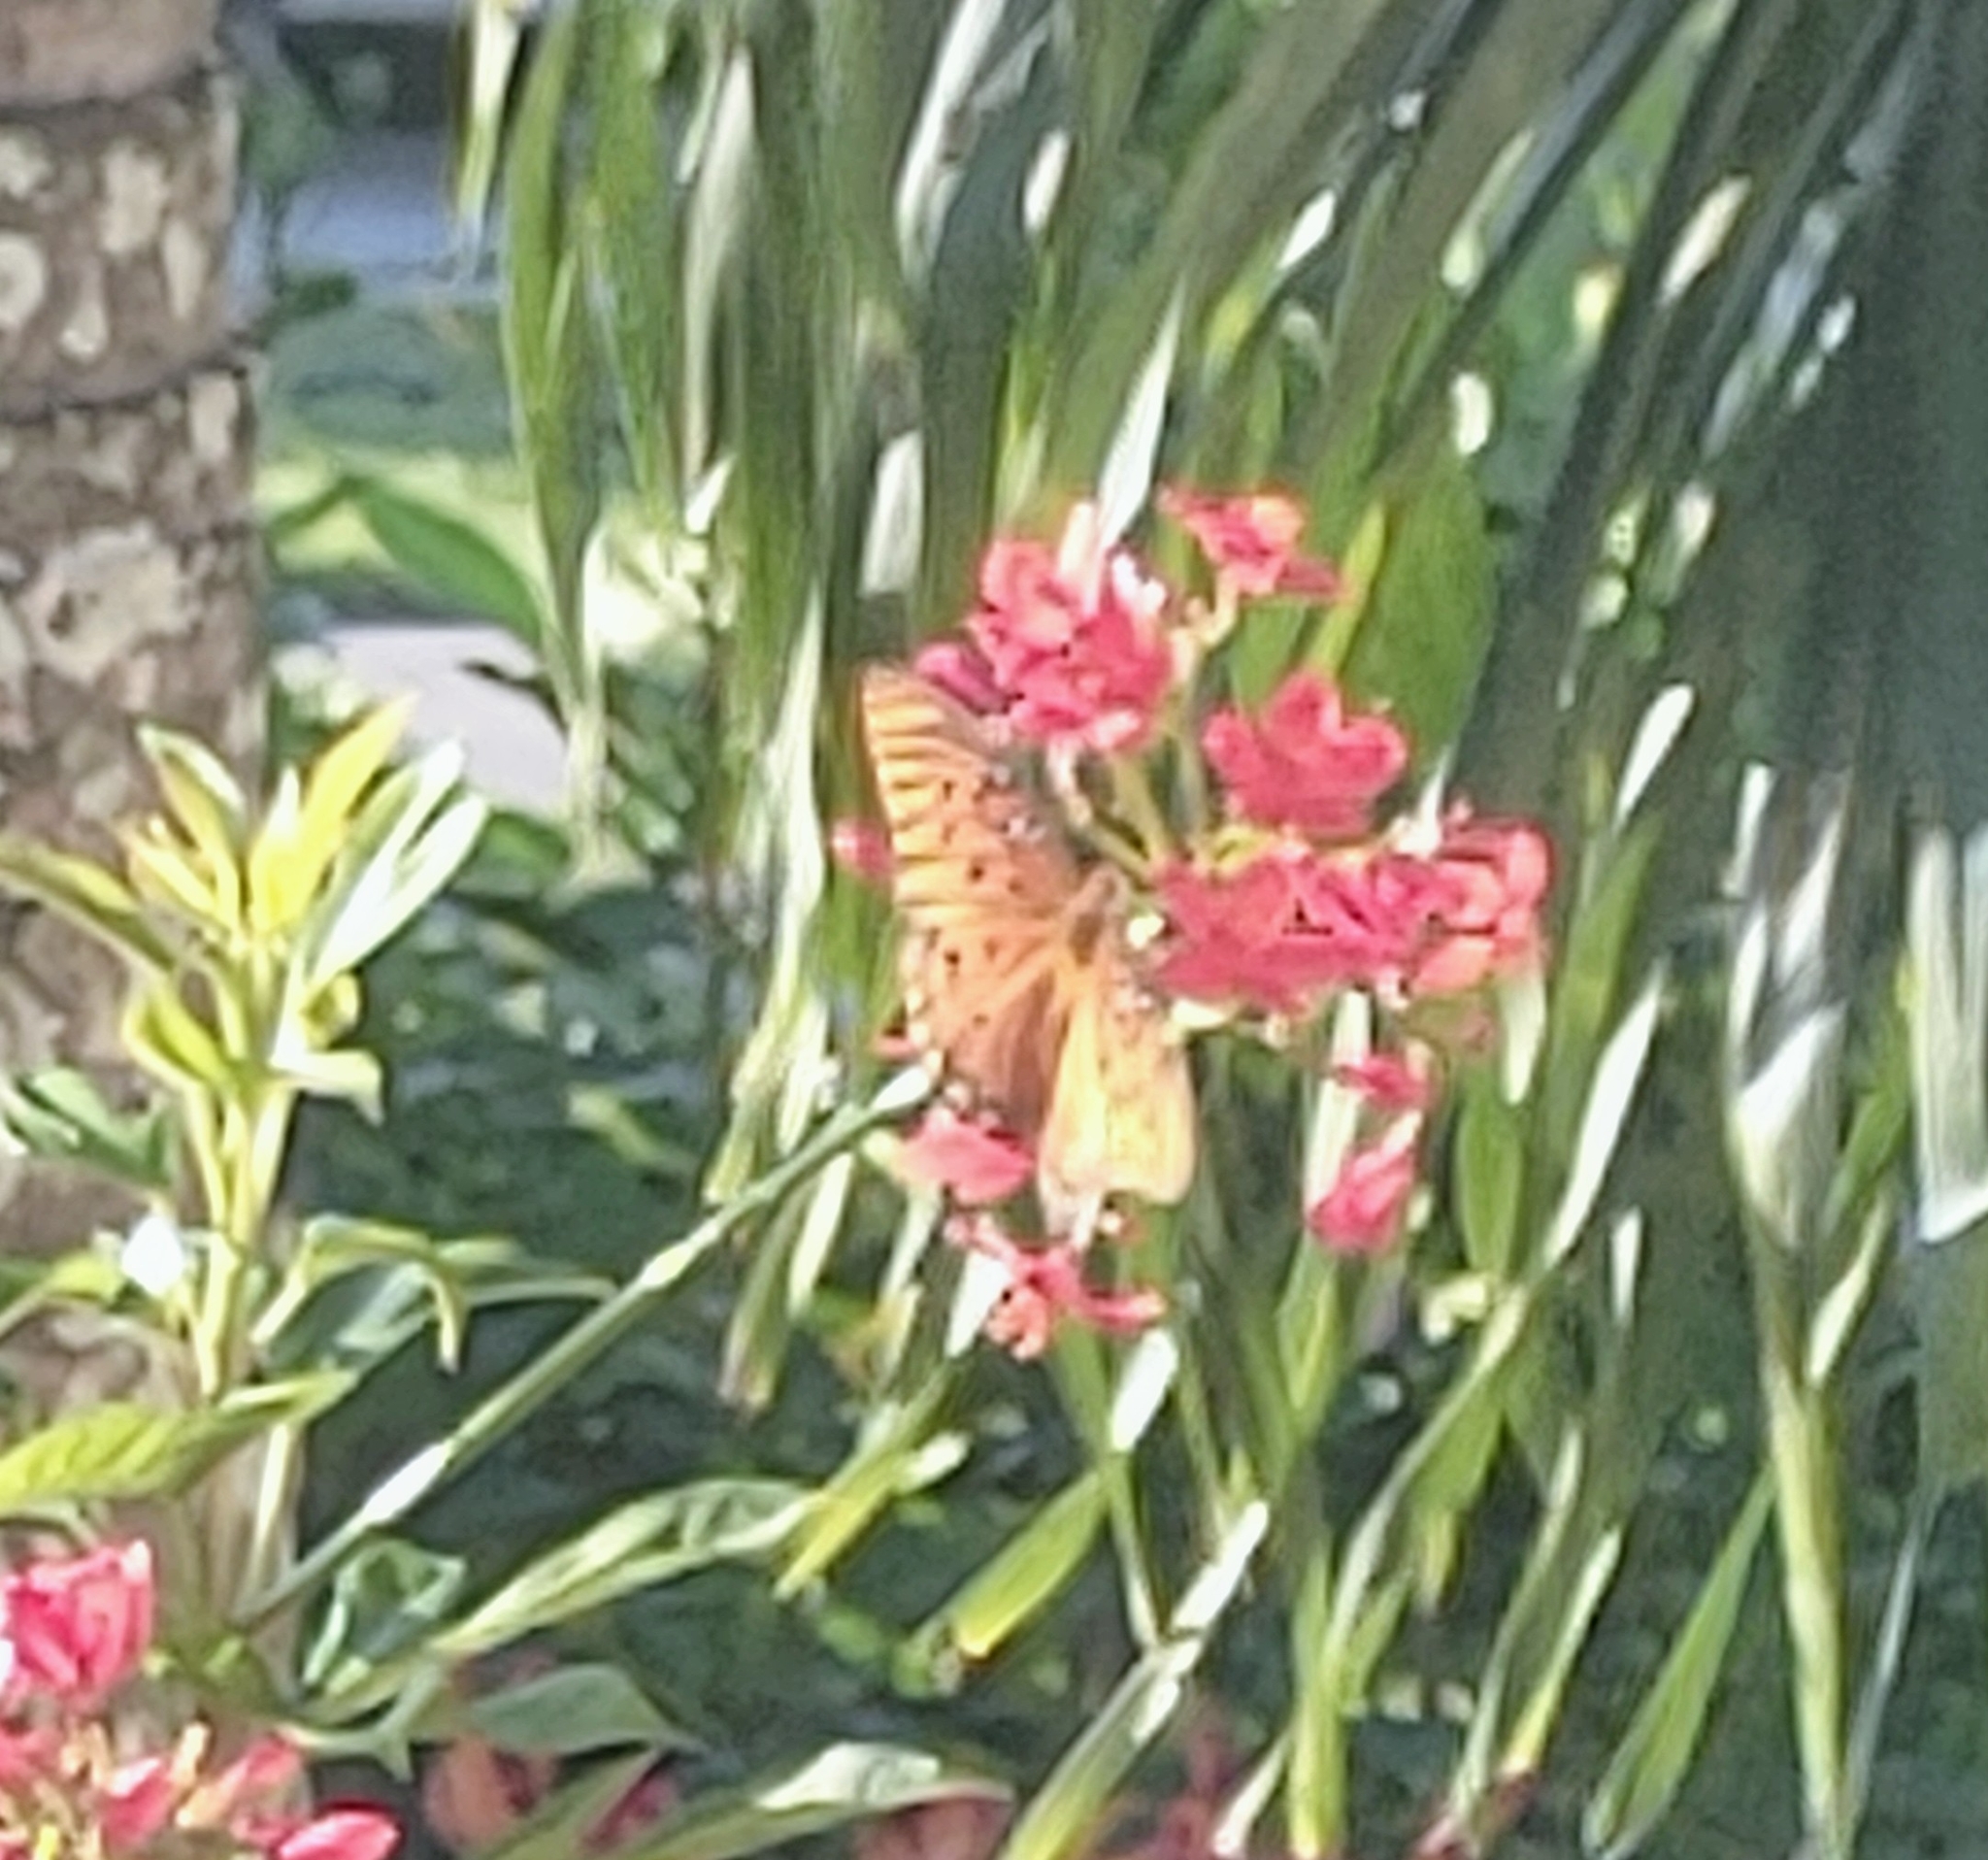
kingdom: Animalia
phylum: Arthropoda
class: Insecta
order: Lepidoptera
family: Nymphalidae
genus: Dione
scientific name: Dione vanillae
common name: Gulf fritillary
